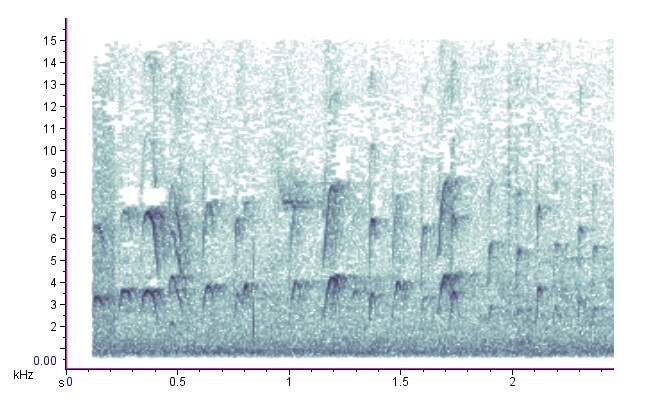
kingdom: Animalia
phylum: Chordata
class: Aves
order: Passeriformes
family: Sittidae
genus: Sitta
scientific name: Sitta pusilla
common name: Brown-headed nuthatch
